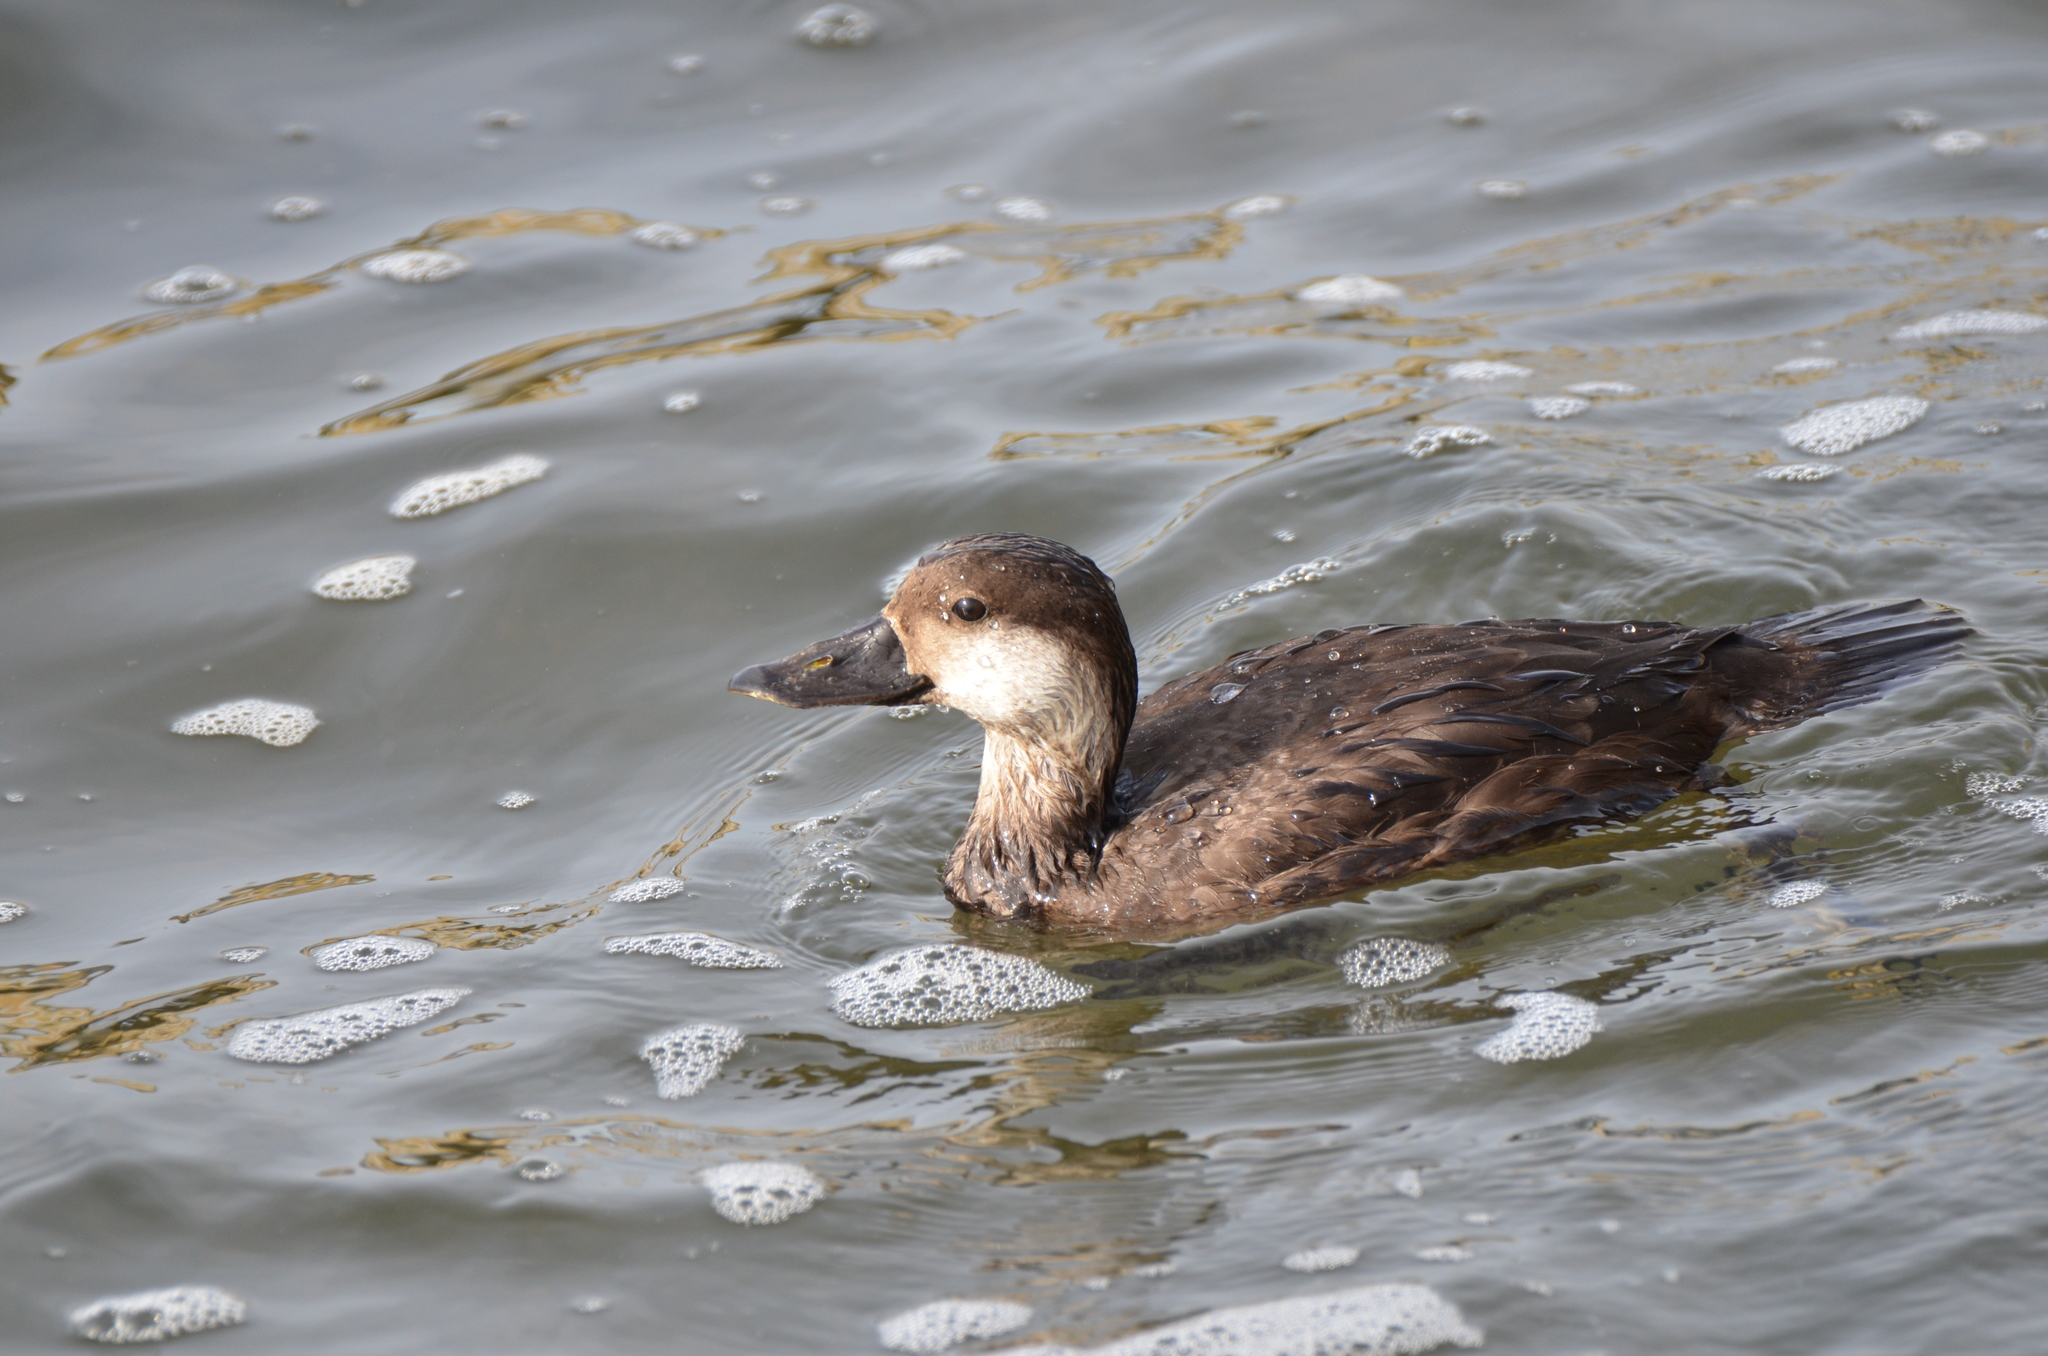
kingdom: Animalia
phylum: Chordata
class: Aves
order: Anseriformes
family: Anatidae
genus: Melanitta
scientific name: Melanitta americana
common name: Black scoter
